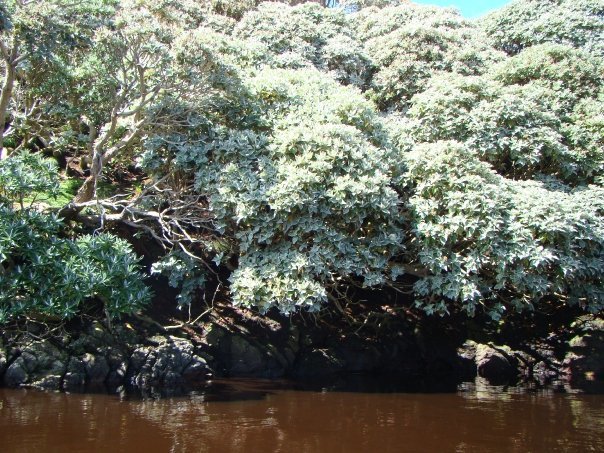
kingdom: Plantae
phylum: Tracheophyta
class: Magnoliopsida
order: Asterales
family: Asteraceae
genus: Macrolearia
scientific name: Macrolearia lyallii
